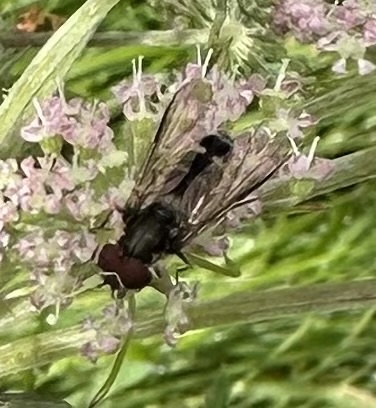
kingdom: Animalia
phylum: Arthropoda
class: Insecta
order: Diptera
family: Syrphidae
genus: Leucozona
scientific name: Leucozona laternaria
